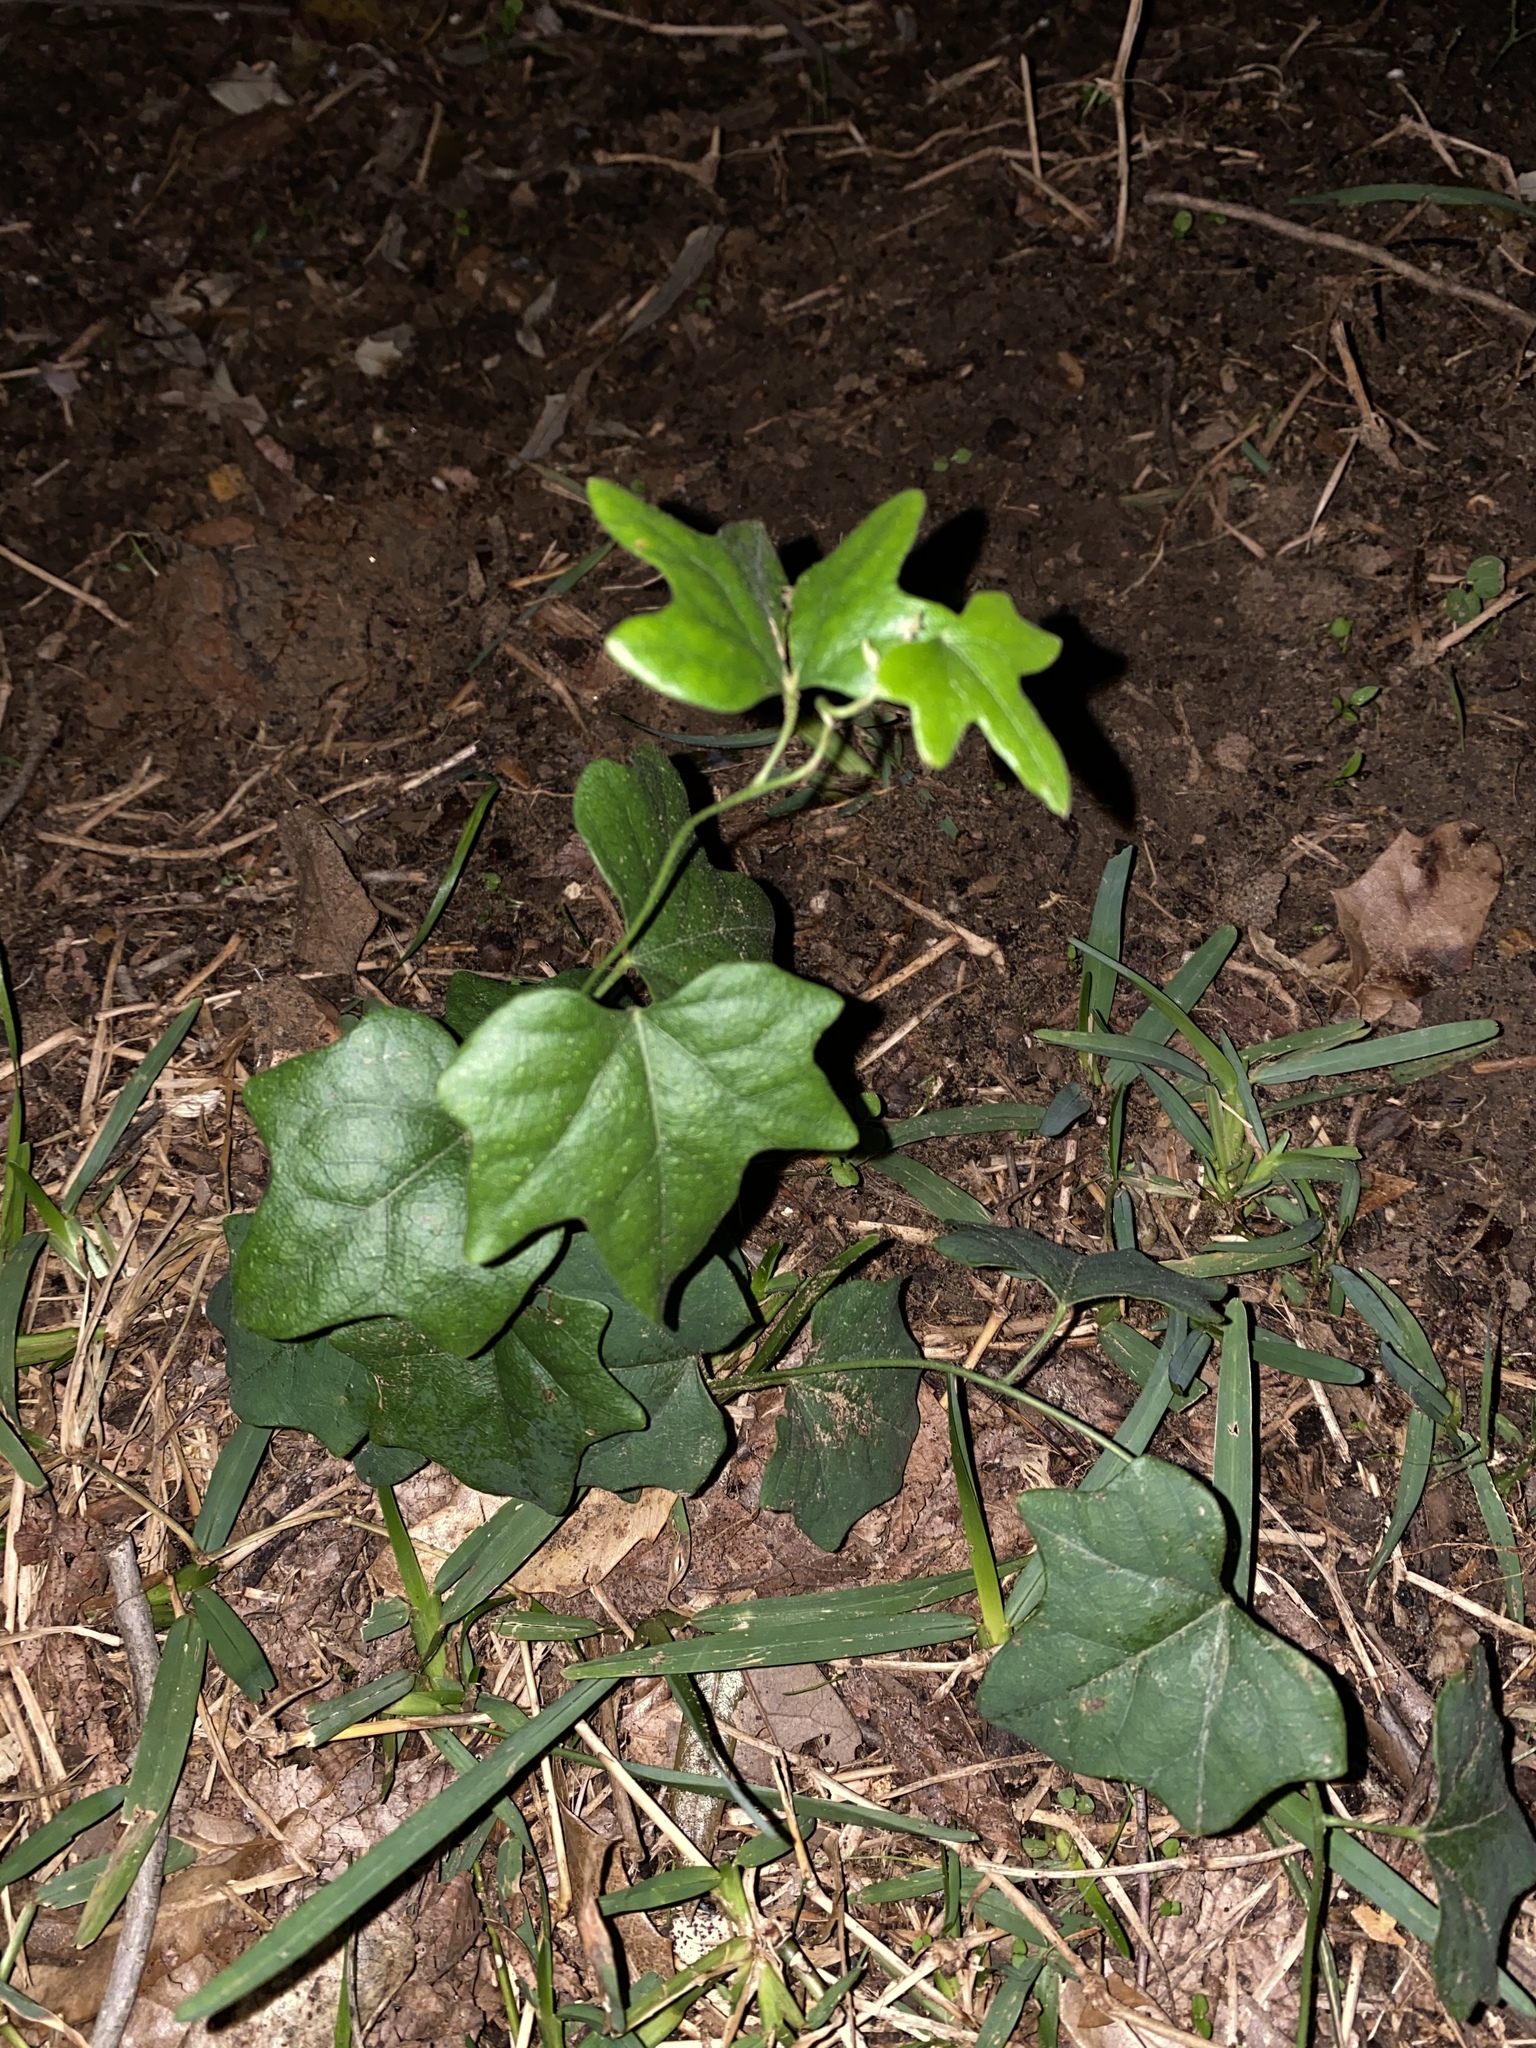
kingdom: Plantae
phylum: Tracheophyta
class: Magnoliopsida
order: Ranunculales
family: Menispermaceae
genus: Cocculus
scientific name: Cocculus carolinus
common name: Carolina moonseed
